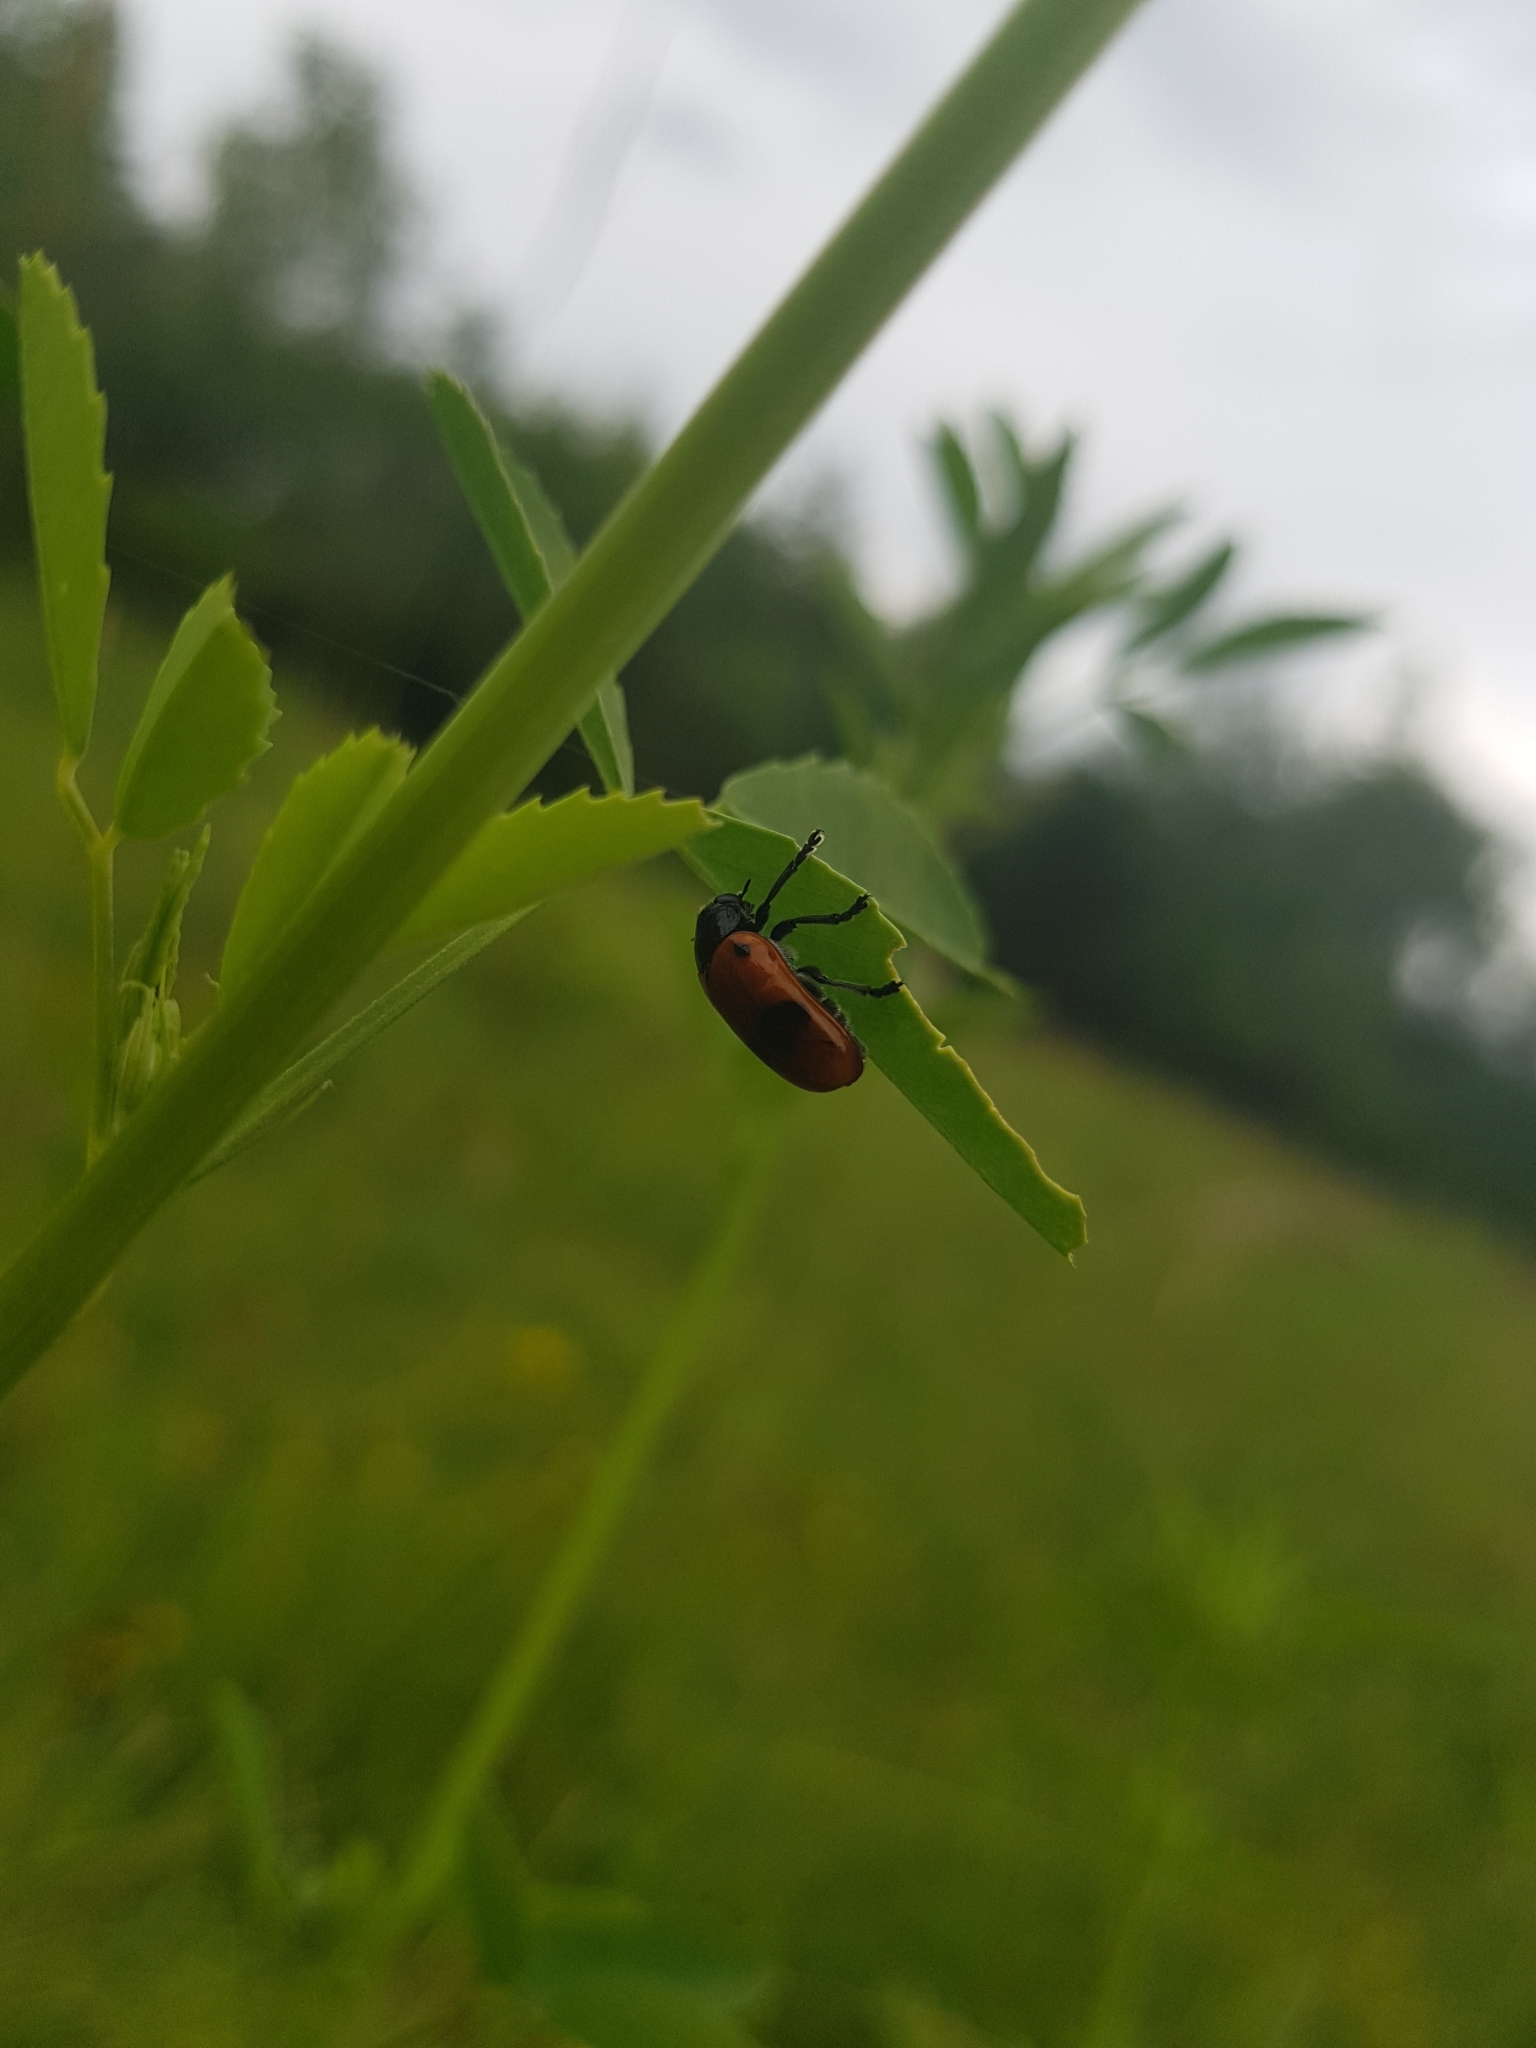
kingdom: Animalia
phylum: Arthropoda
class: Insecta
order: Coleoptera
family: Chrysomelidae
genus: Clytra
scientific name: Clytra laeviuscula
